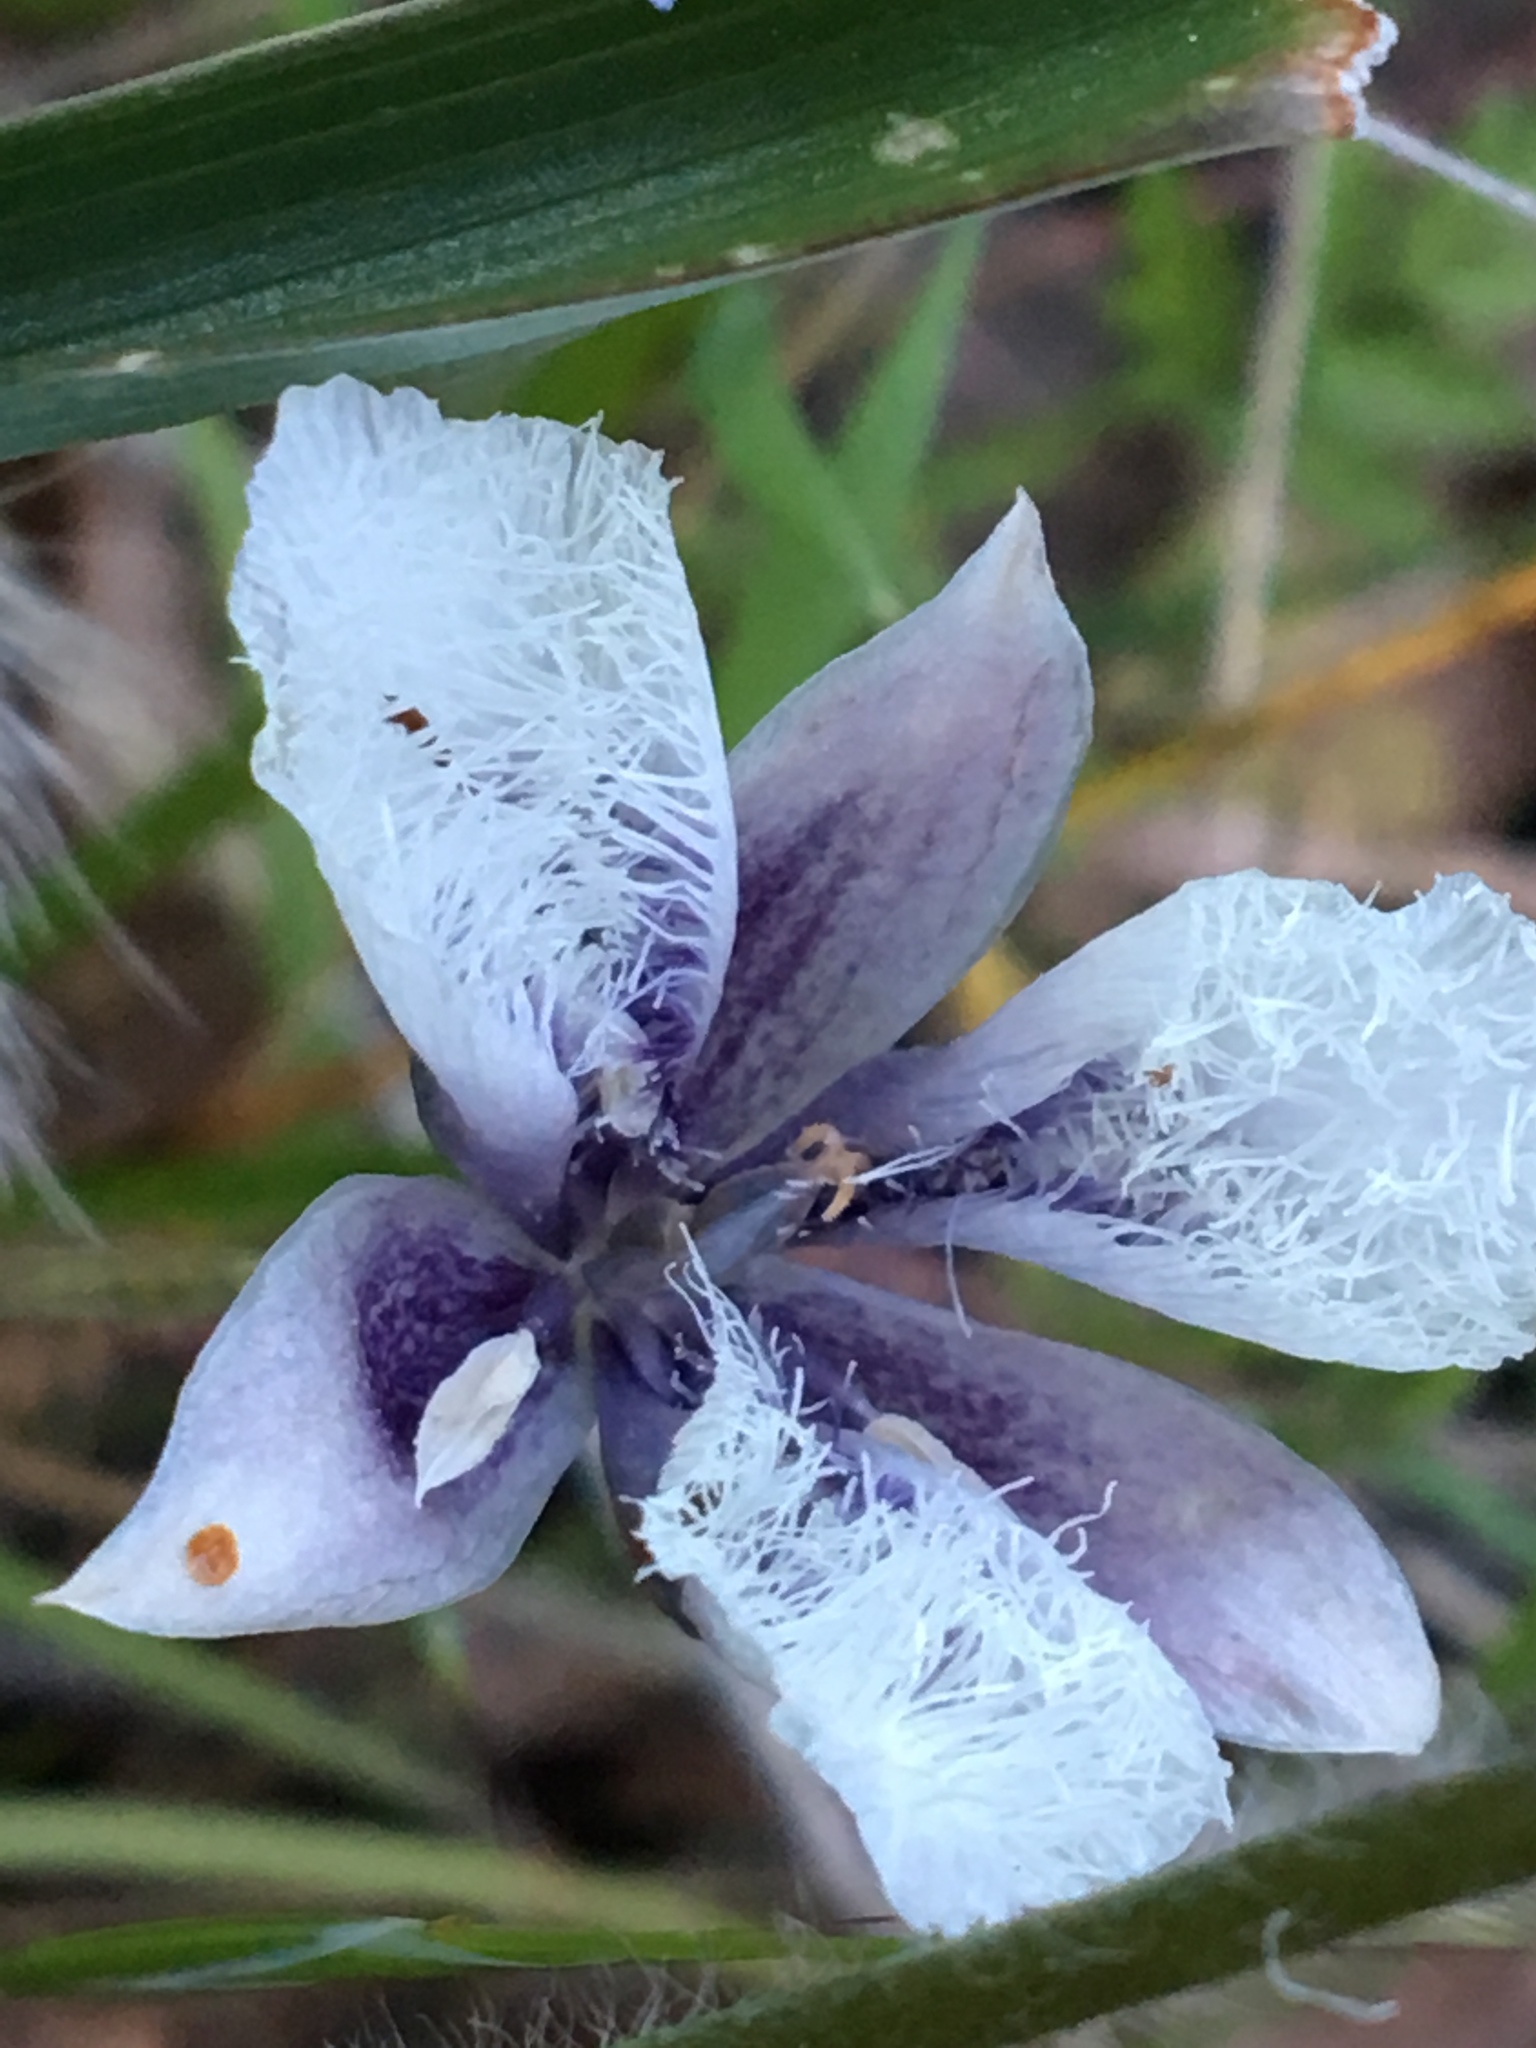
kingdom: Plantae
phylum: Tracheophyta
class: Liliopsida
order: Liliales
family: Liliaceae
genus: Calochortus
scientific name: Calochortus tolmiei
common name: Pussy-ears
